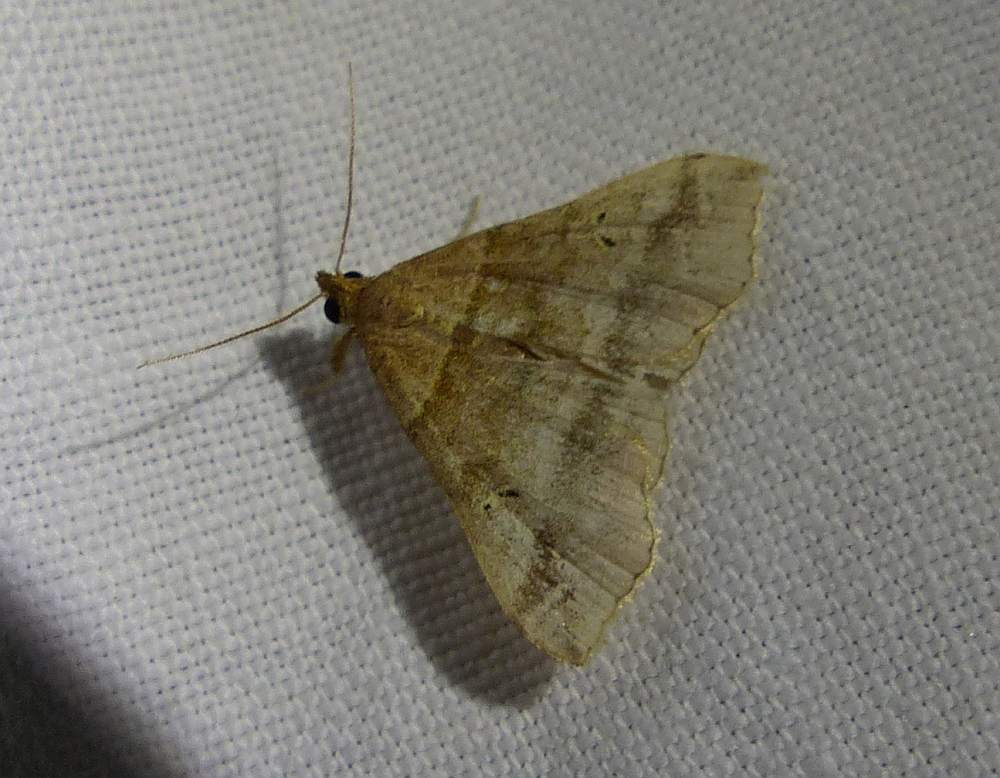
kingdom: Animalia
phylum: Arthropoda
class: Insecta
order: Lepidoptera
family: Erebidae
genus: Phaeolita
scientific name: Phaeolita pyramusalis
